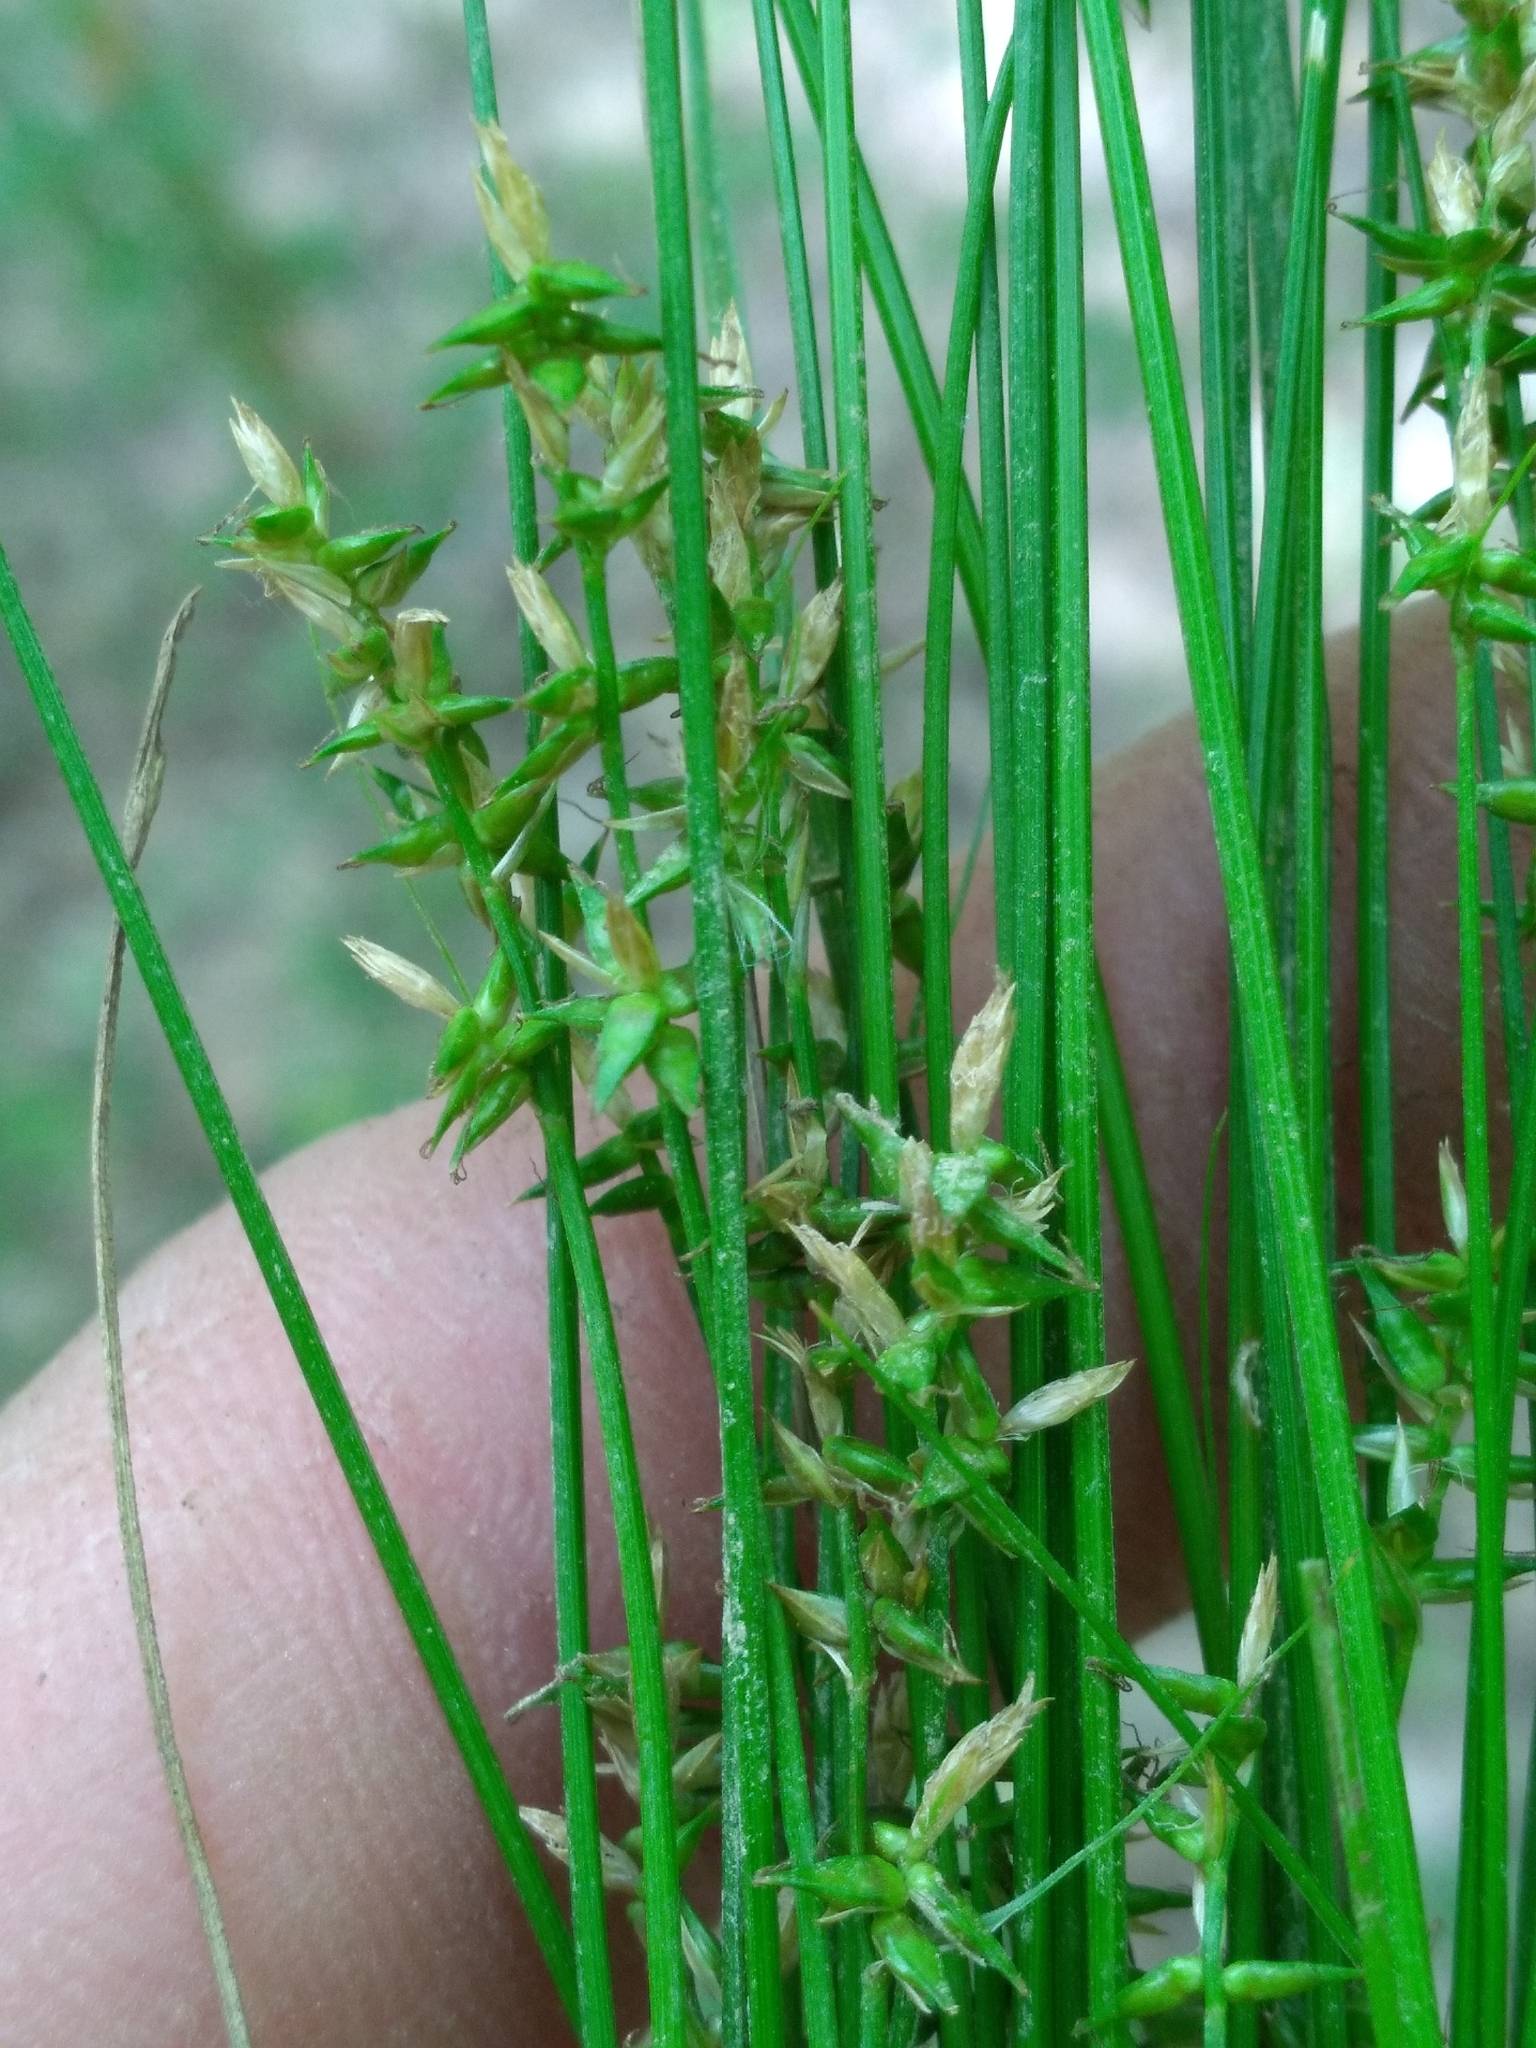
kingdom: Plantae
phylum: Tracheophyta
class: Liliopsida
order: Poales
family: Cyperaceae
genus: Carex
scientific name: Carex texensis
